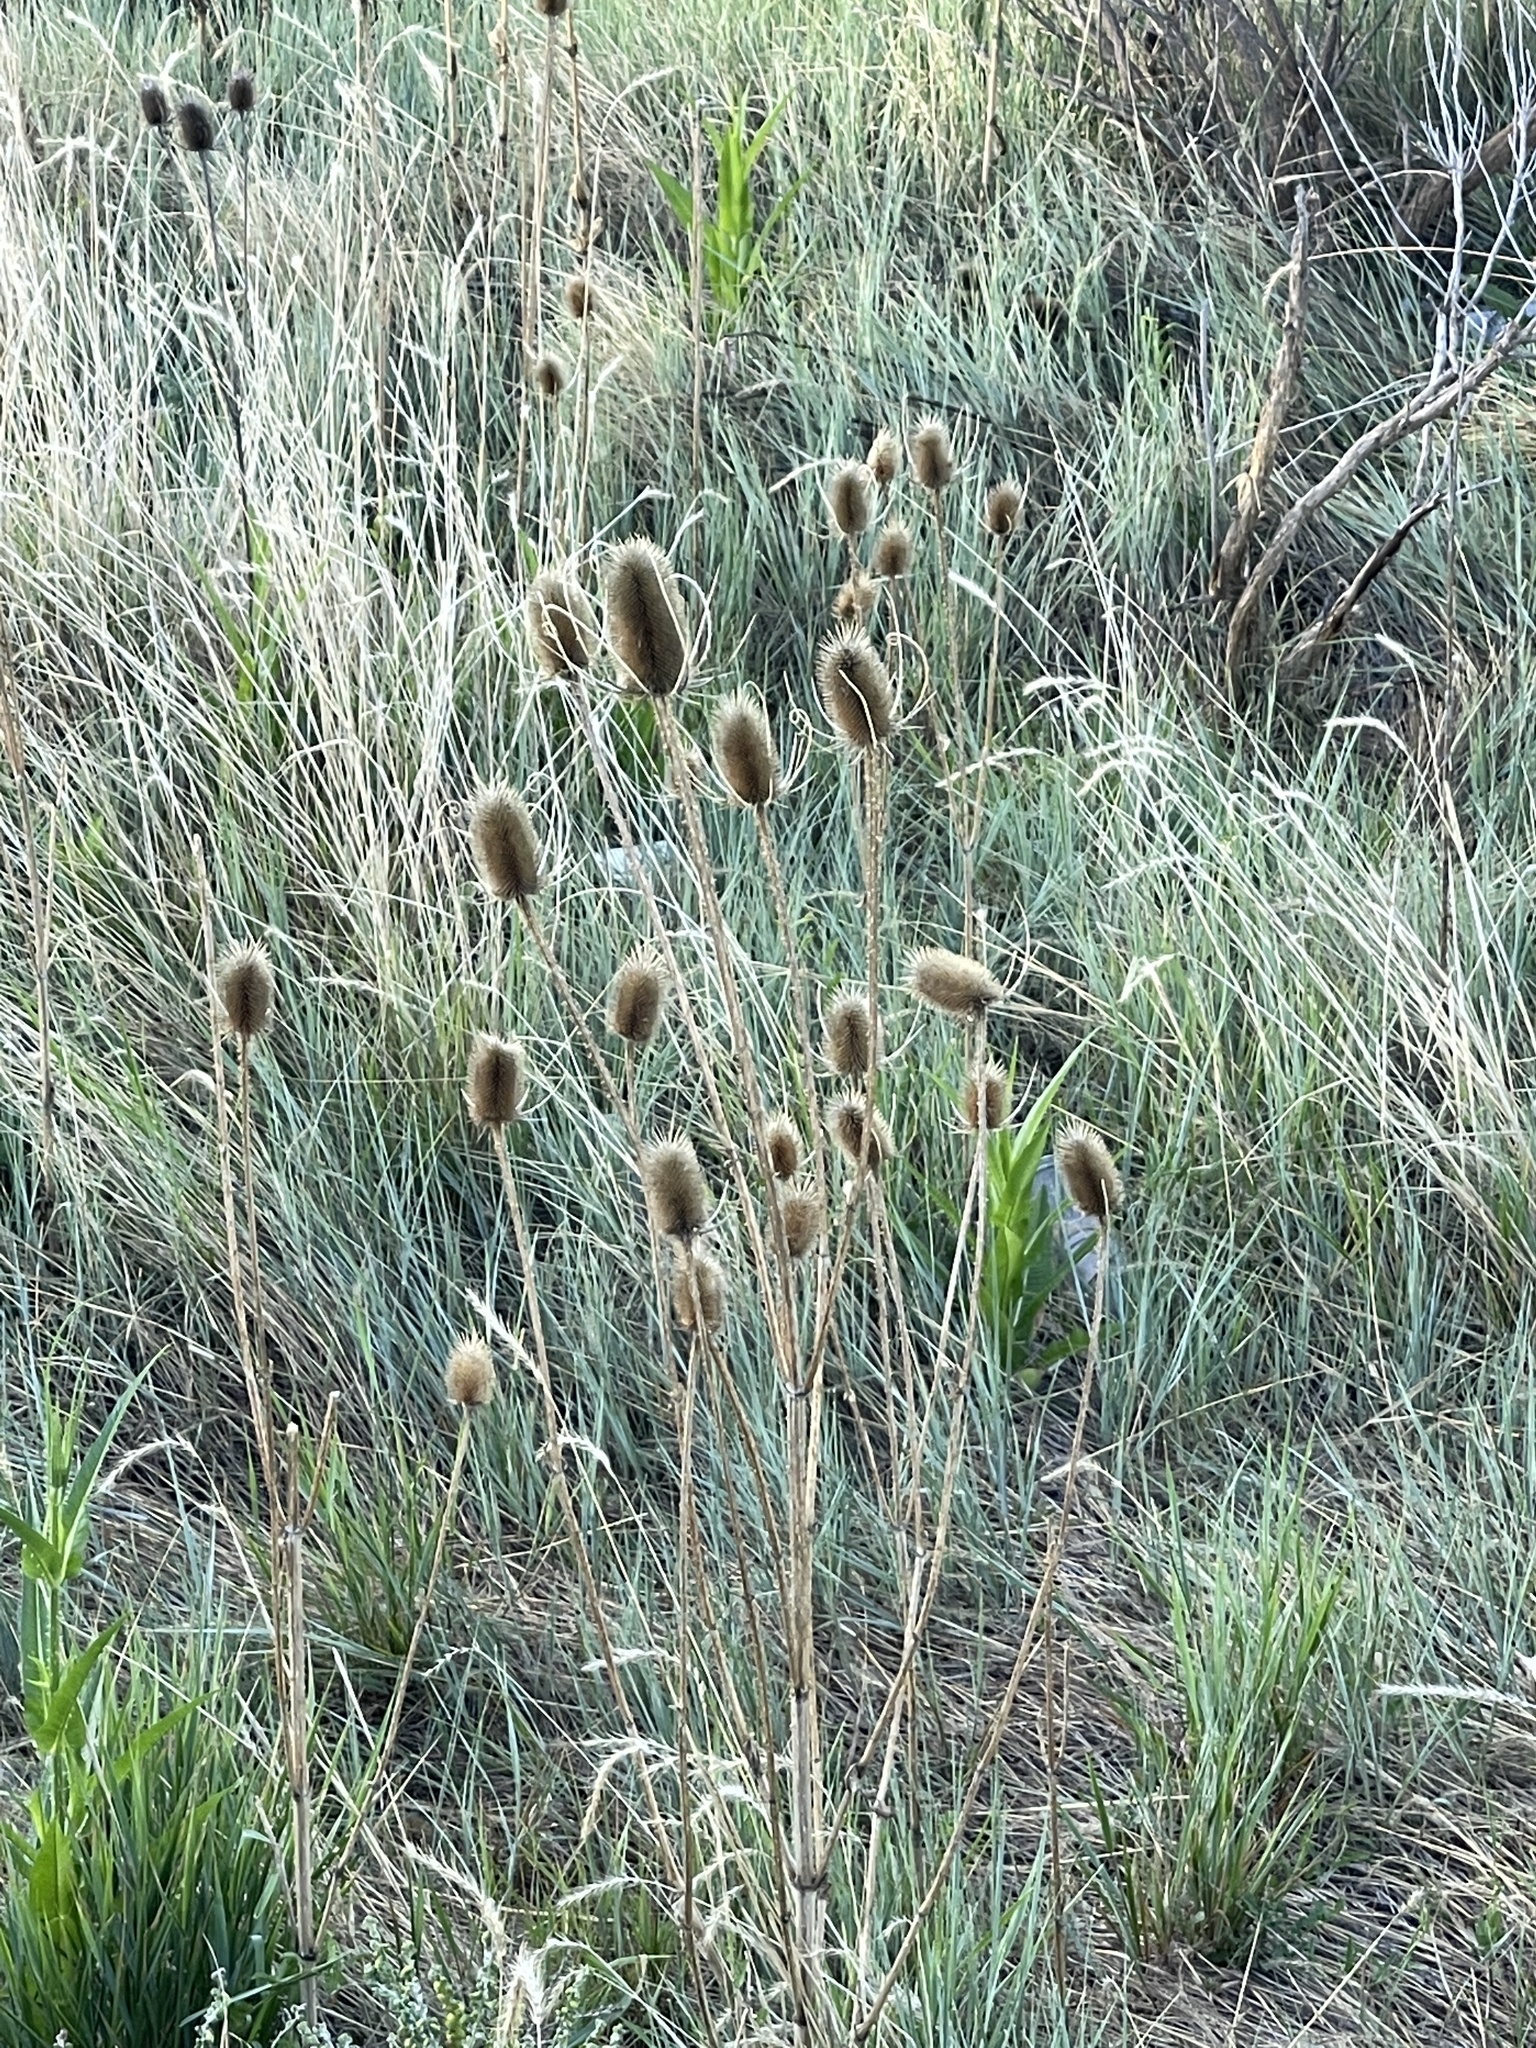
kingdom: Plantae
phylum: Tracheophyta
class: Magnoliopsida
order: Dipsacales
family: Caprifoliaceae
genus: Dipsacus
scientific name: Dipsacus fullonum
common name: Teasel
